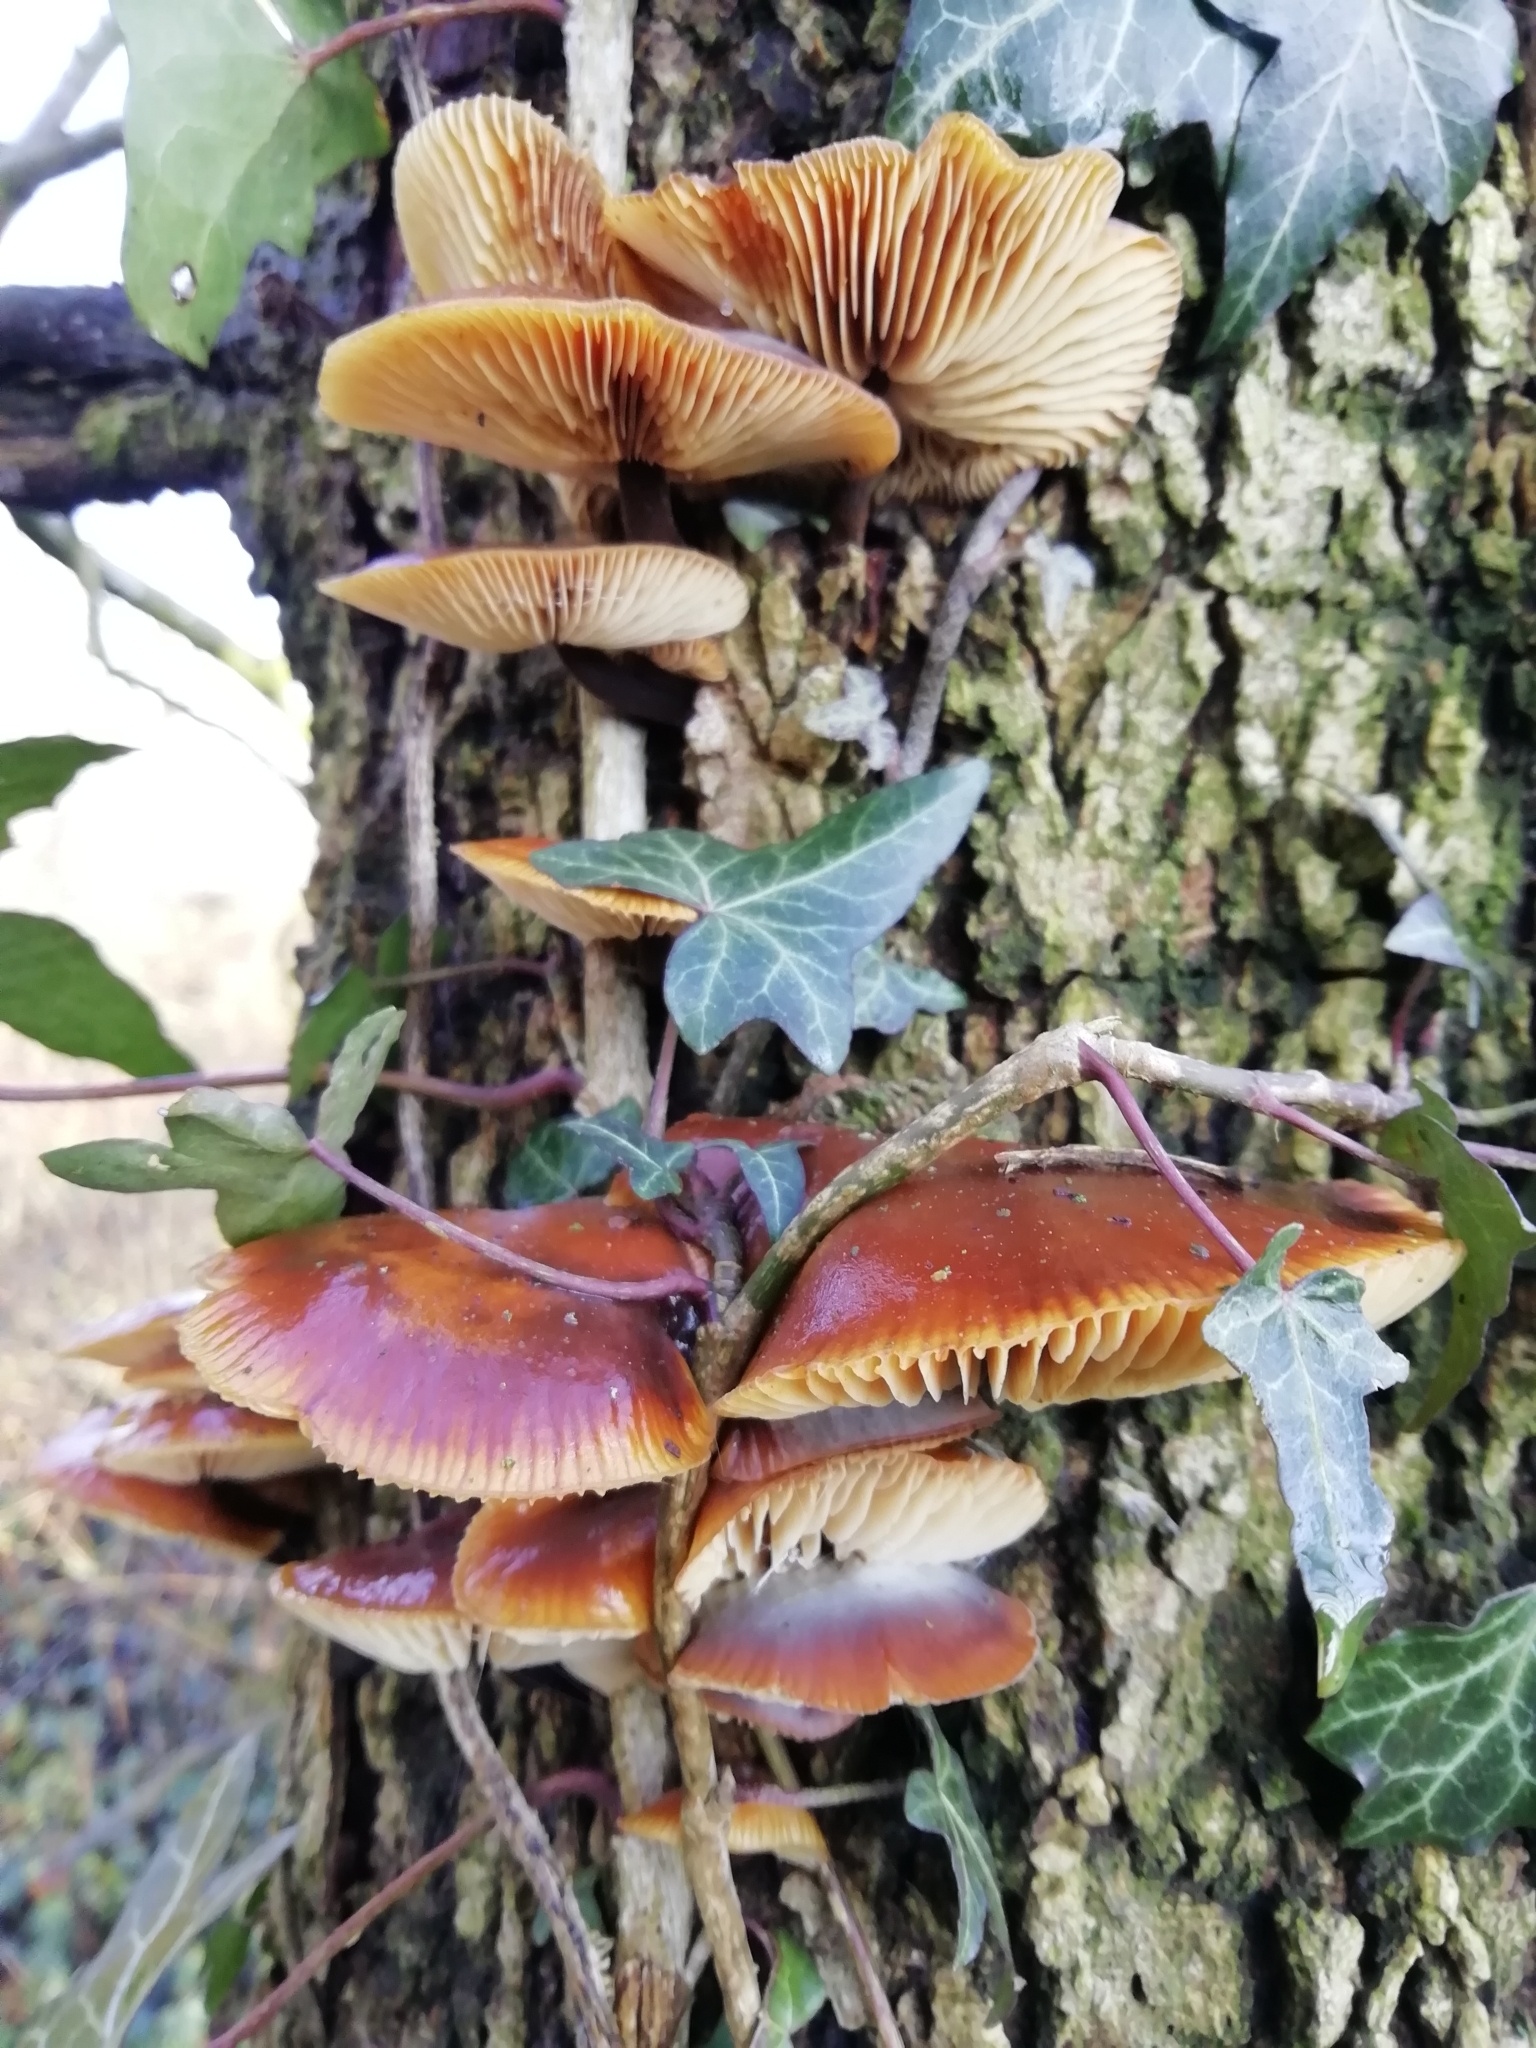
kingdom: Fungi
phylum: Basidiomycota
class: Agaricomycetes
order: Agaricales
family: Physalacriaceae
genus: Flammulina
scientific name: Flammulina
